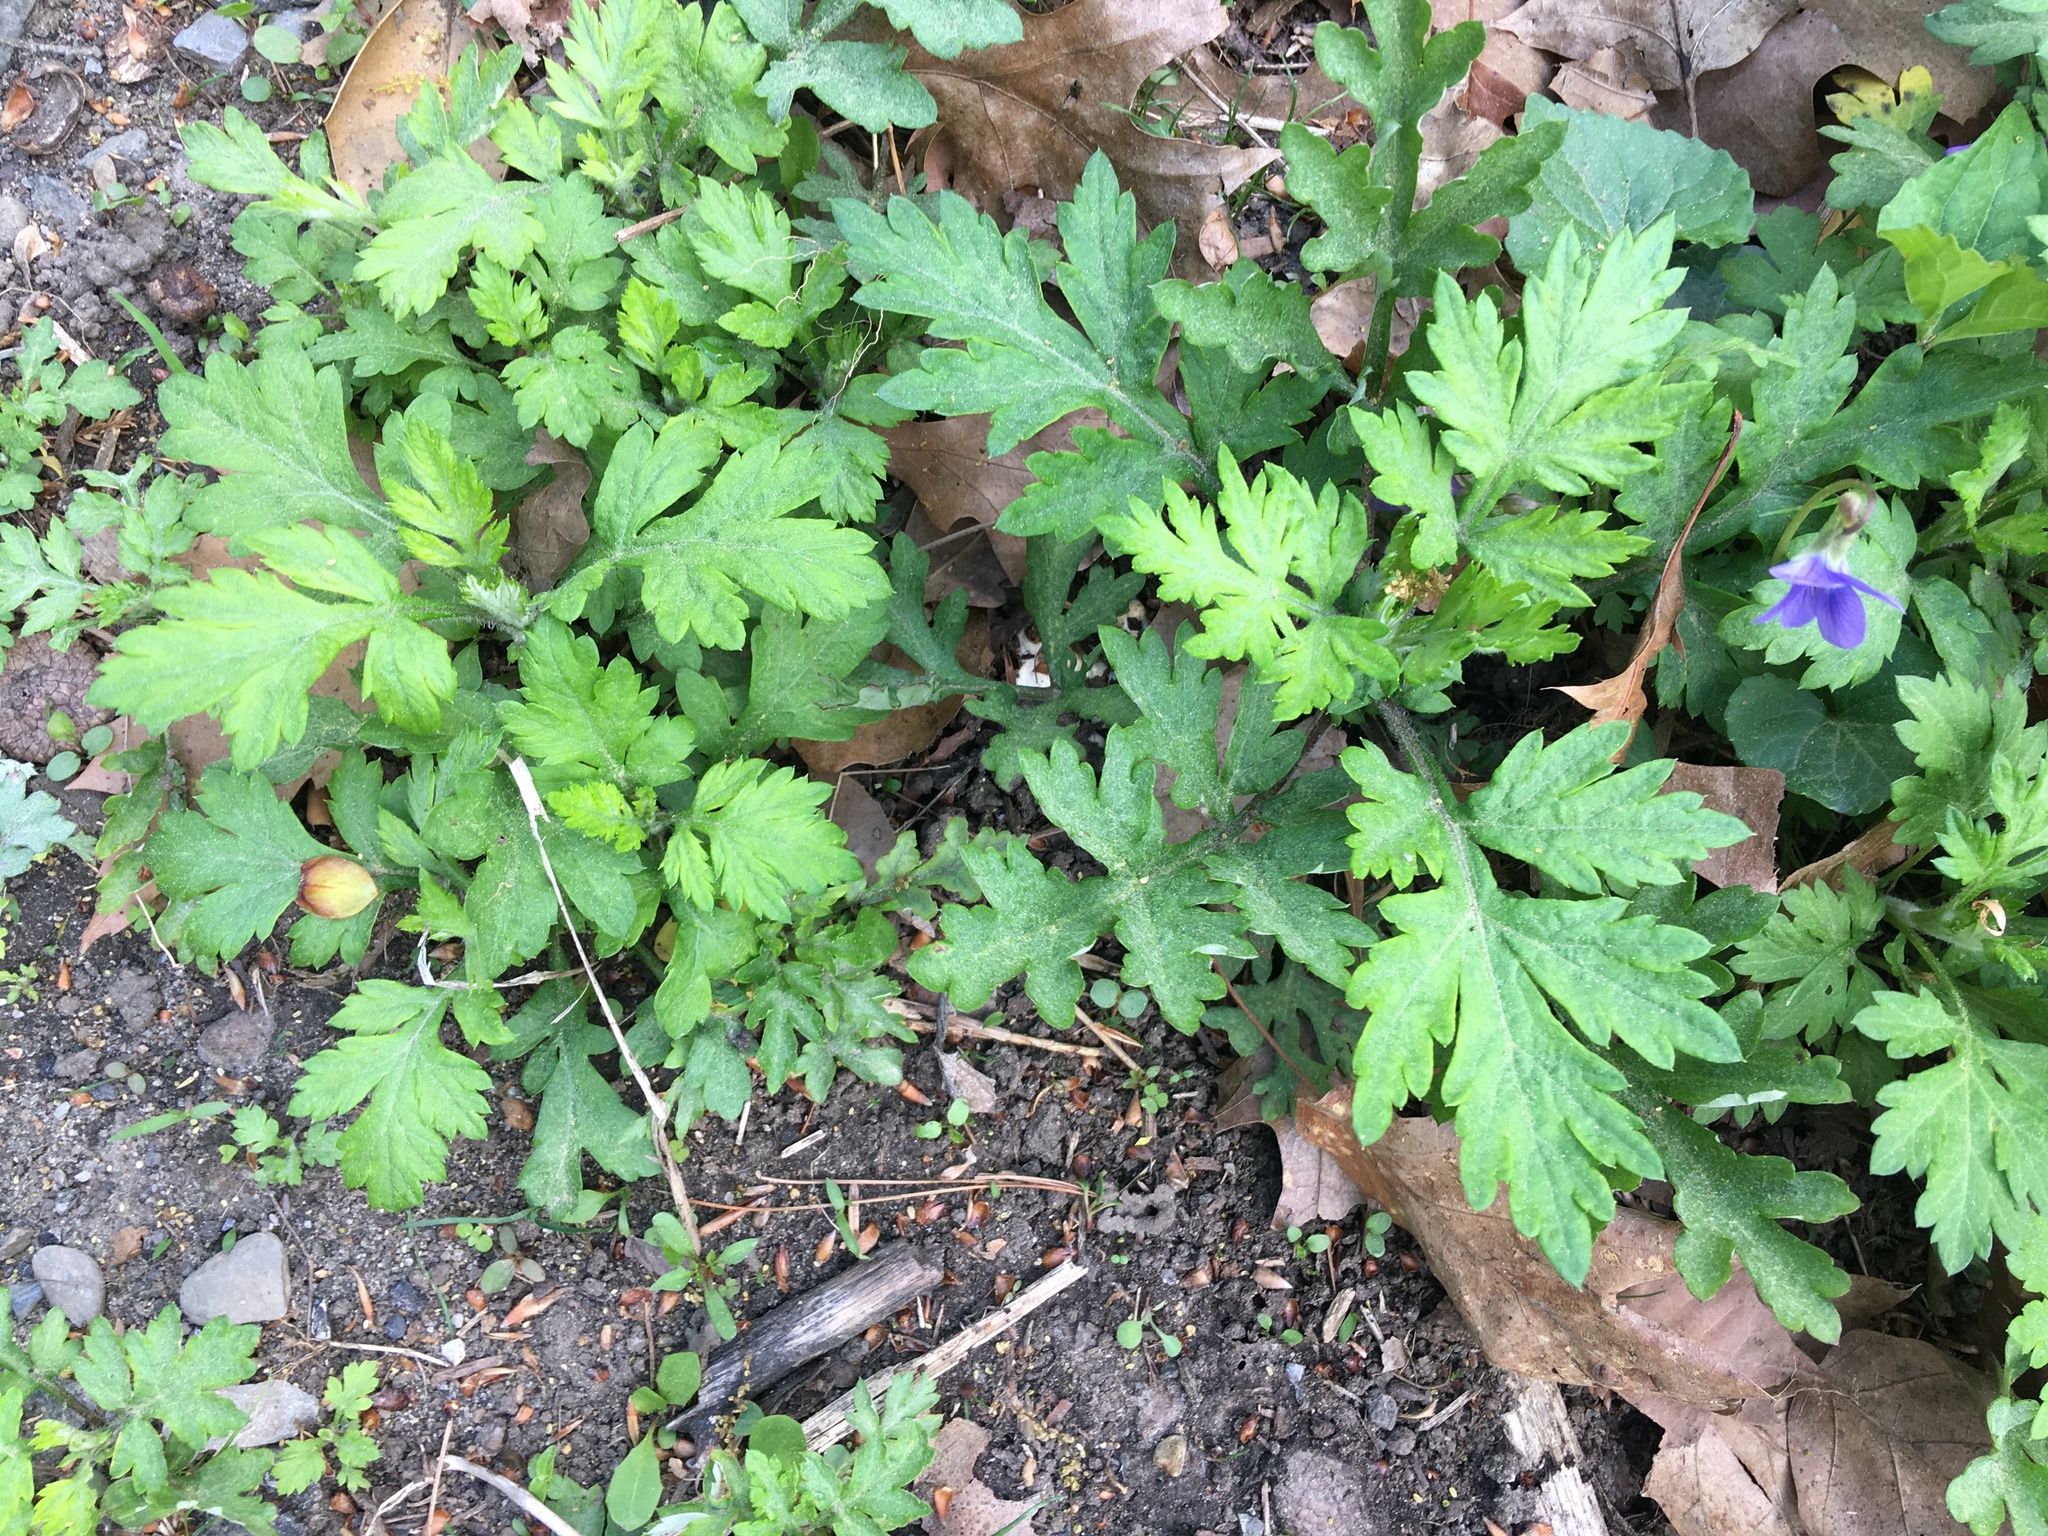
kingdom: Plantae
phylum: Tracheophyta
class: Magnoliopsida
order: Asterales
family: Asteraceae
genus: Artemisia
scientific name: Artemisia vulgaris
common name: Mugwort
